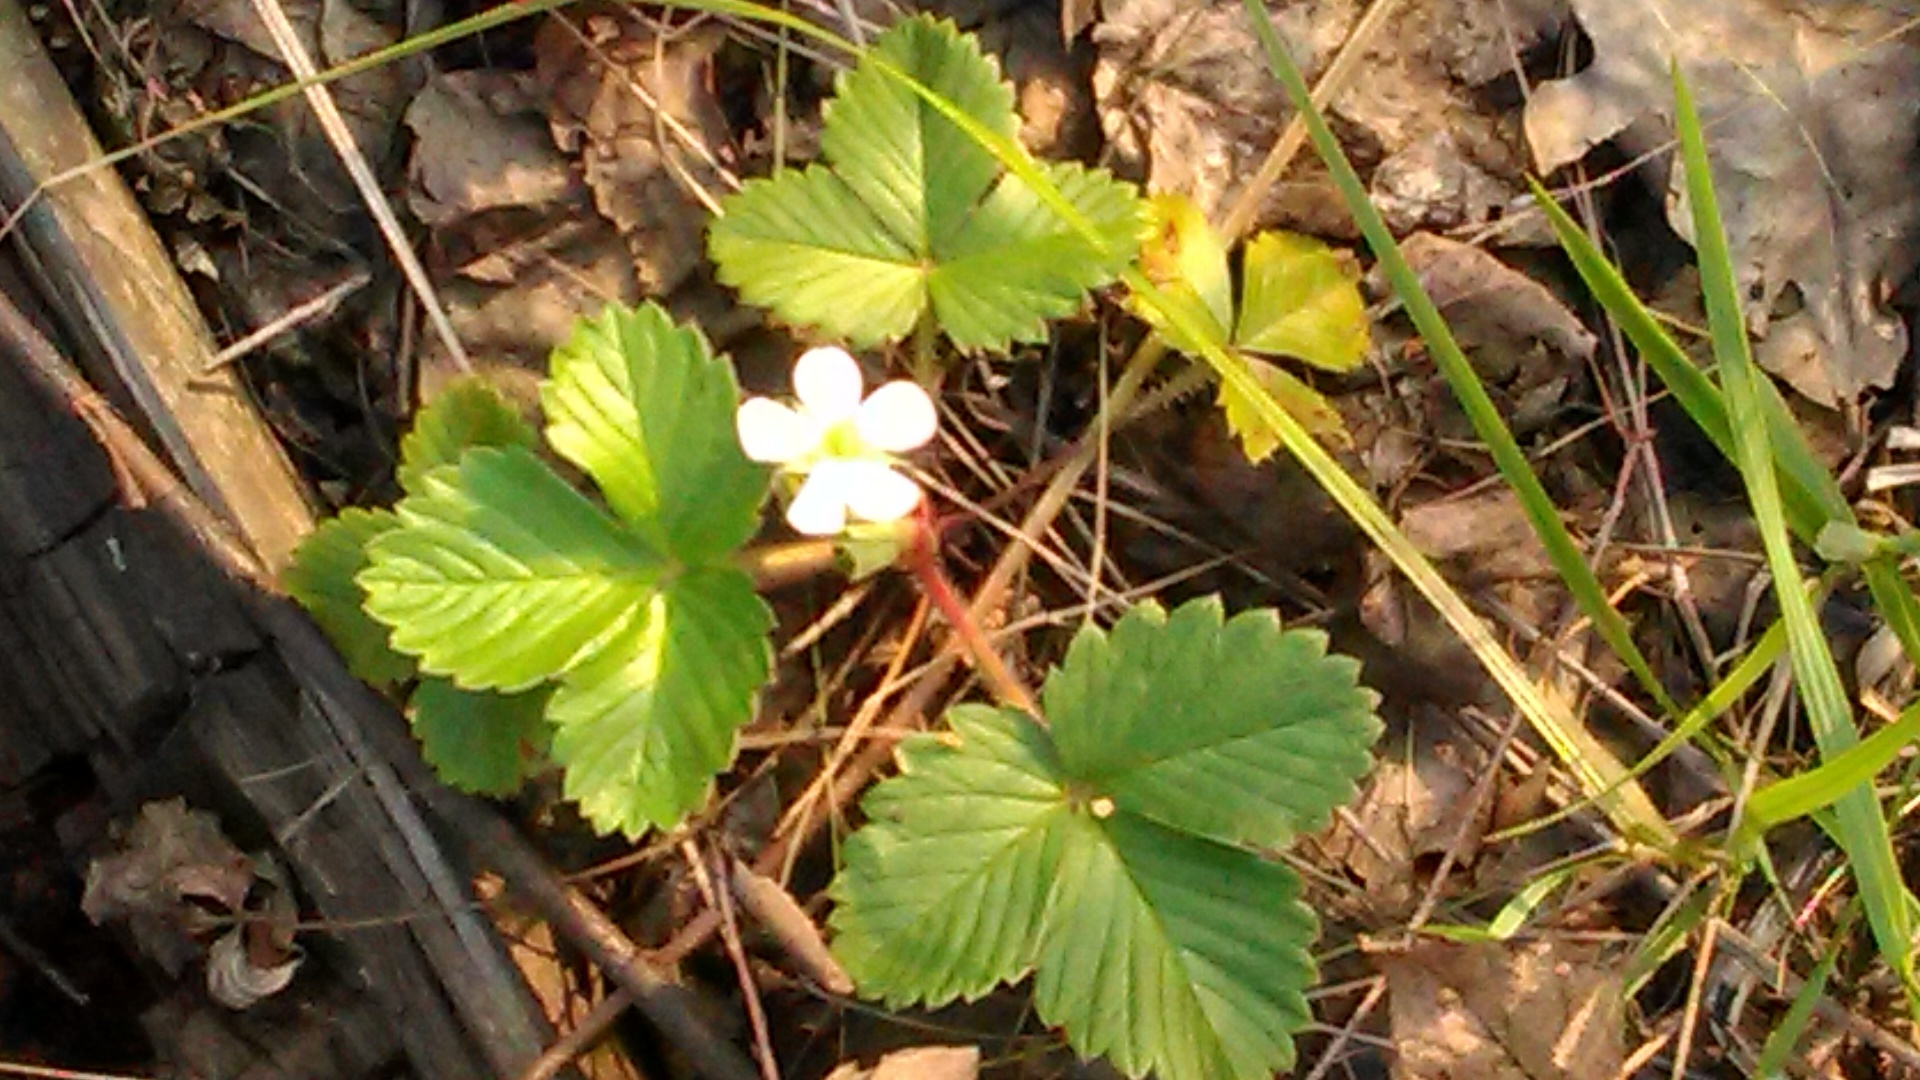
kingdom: Plantae
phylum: Tracheophyta
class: Magnoliopsida
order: Rosales
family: Rosaceae
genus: Fragaria
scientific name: Fragaria vesca
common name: Wild strawberry
